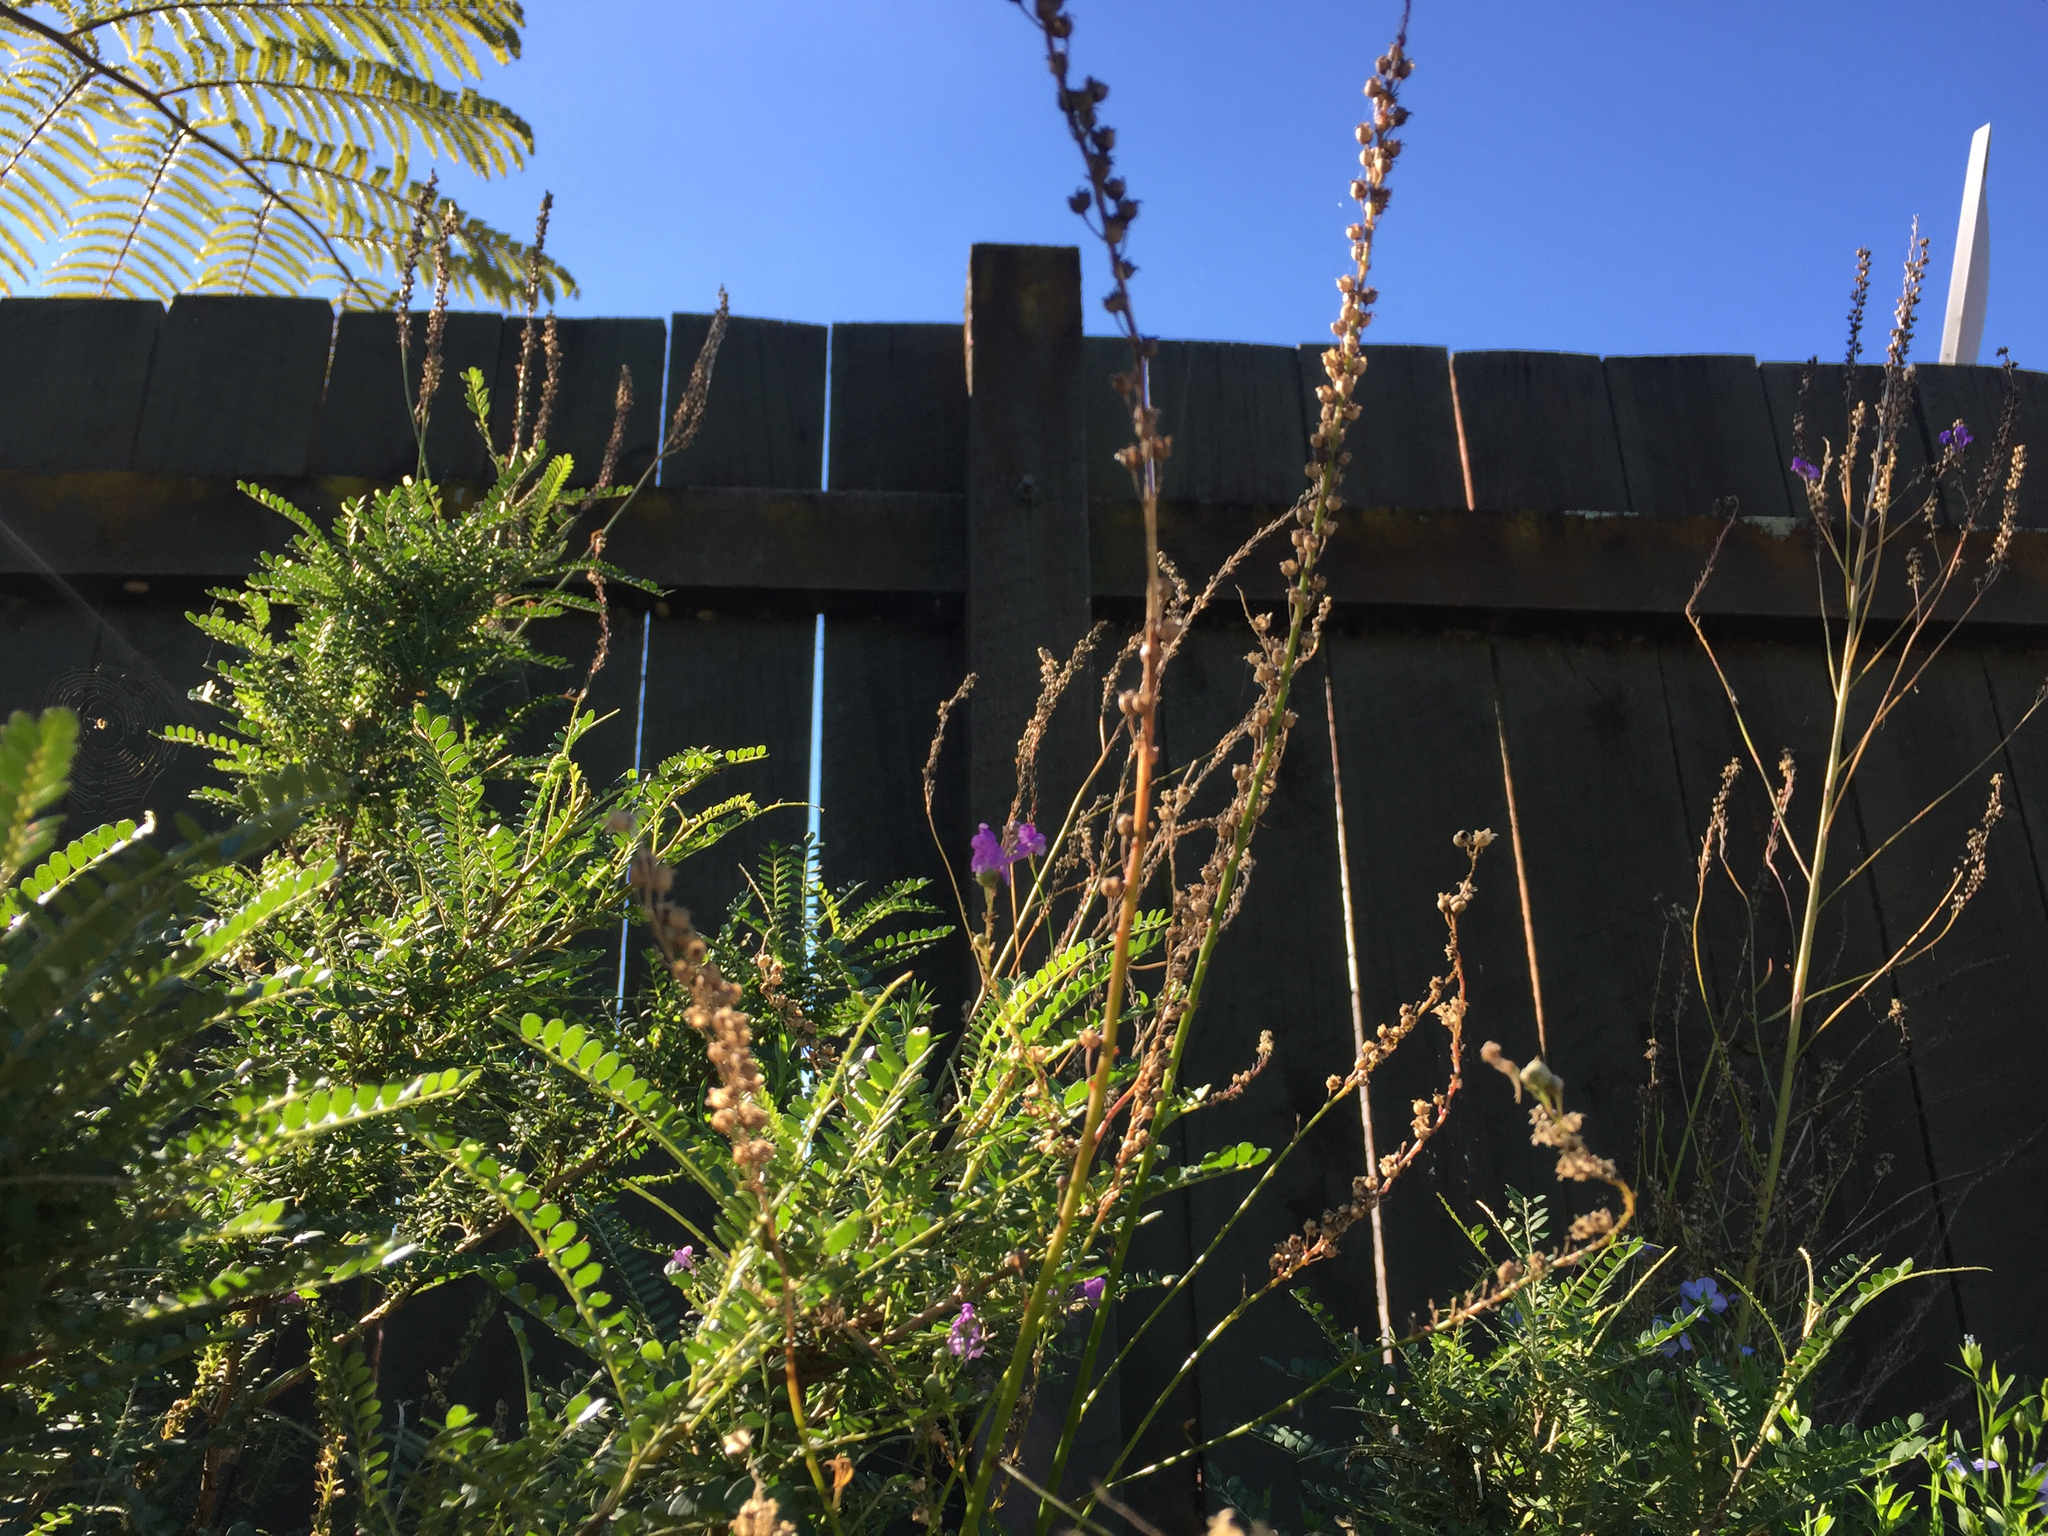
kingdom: Plantae
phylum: Tracheophyta
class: Magnoliopsida
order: Lamiales
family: Plantaginaceae
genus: Linaria
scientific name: Linaria purpurea
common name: Purple toadflax
